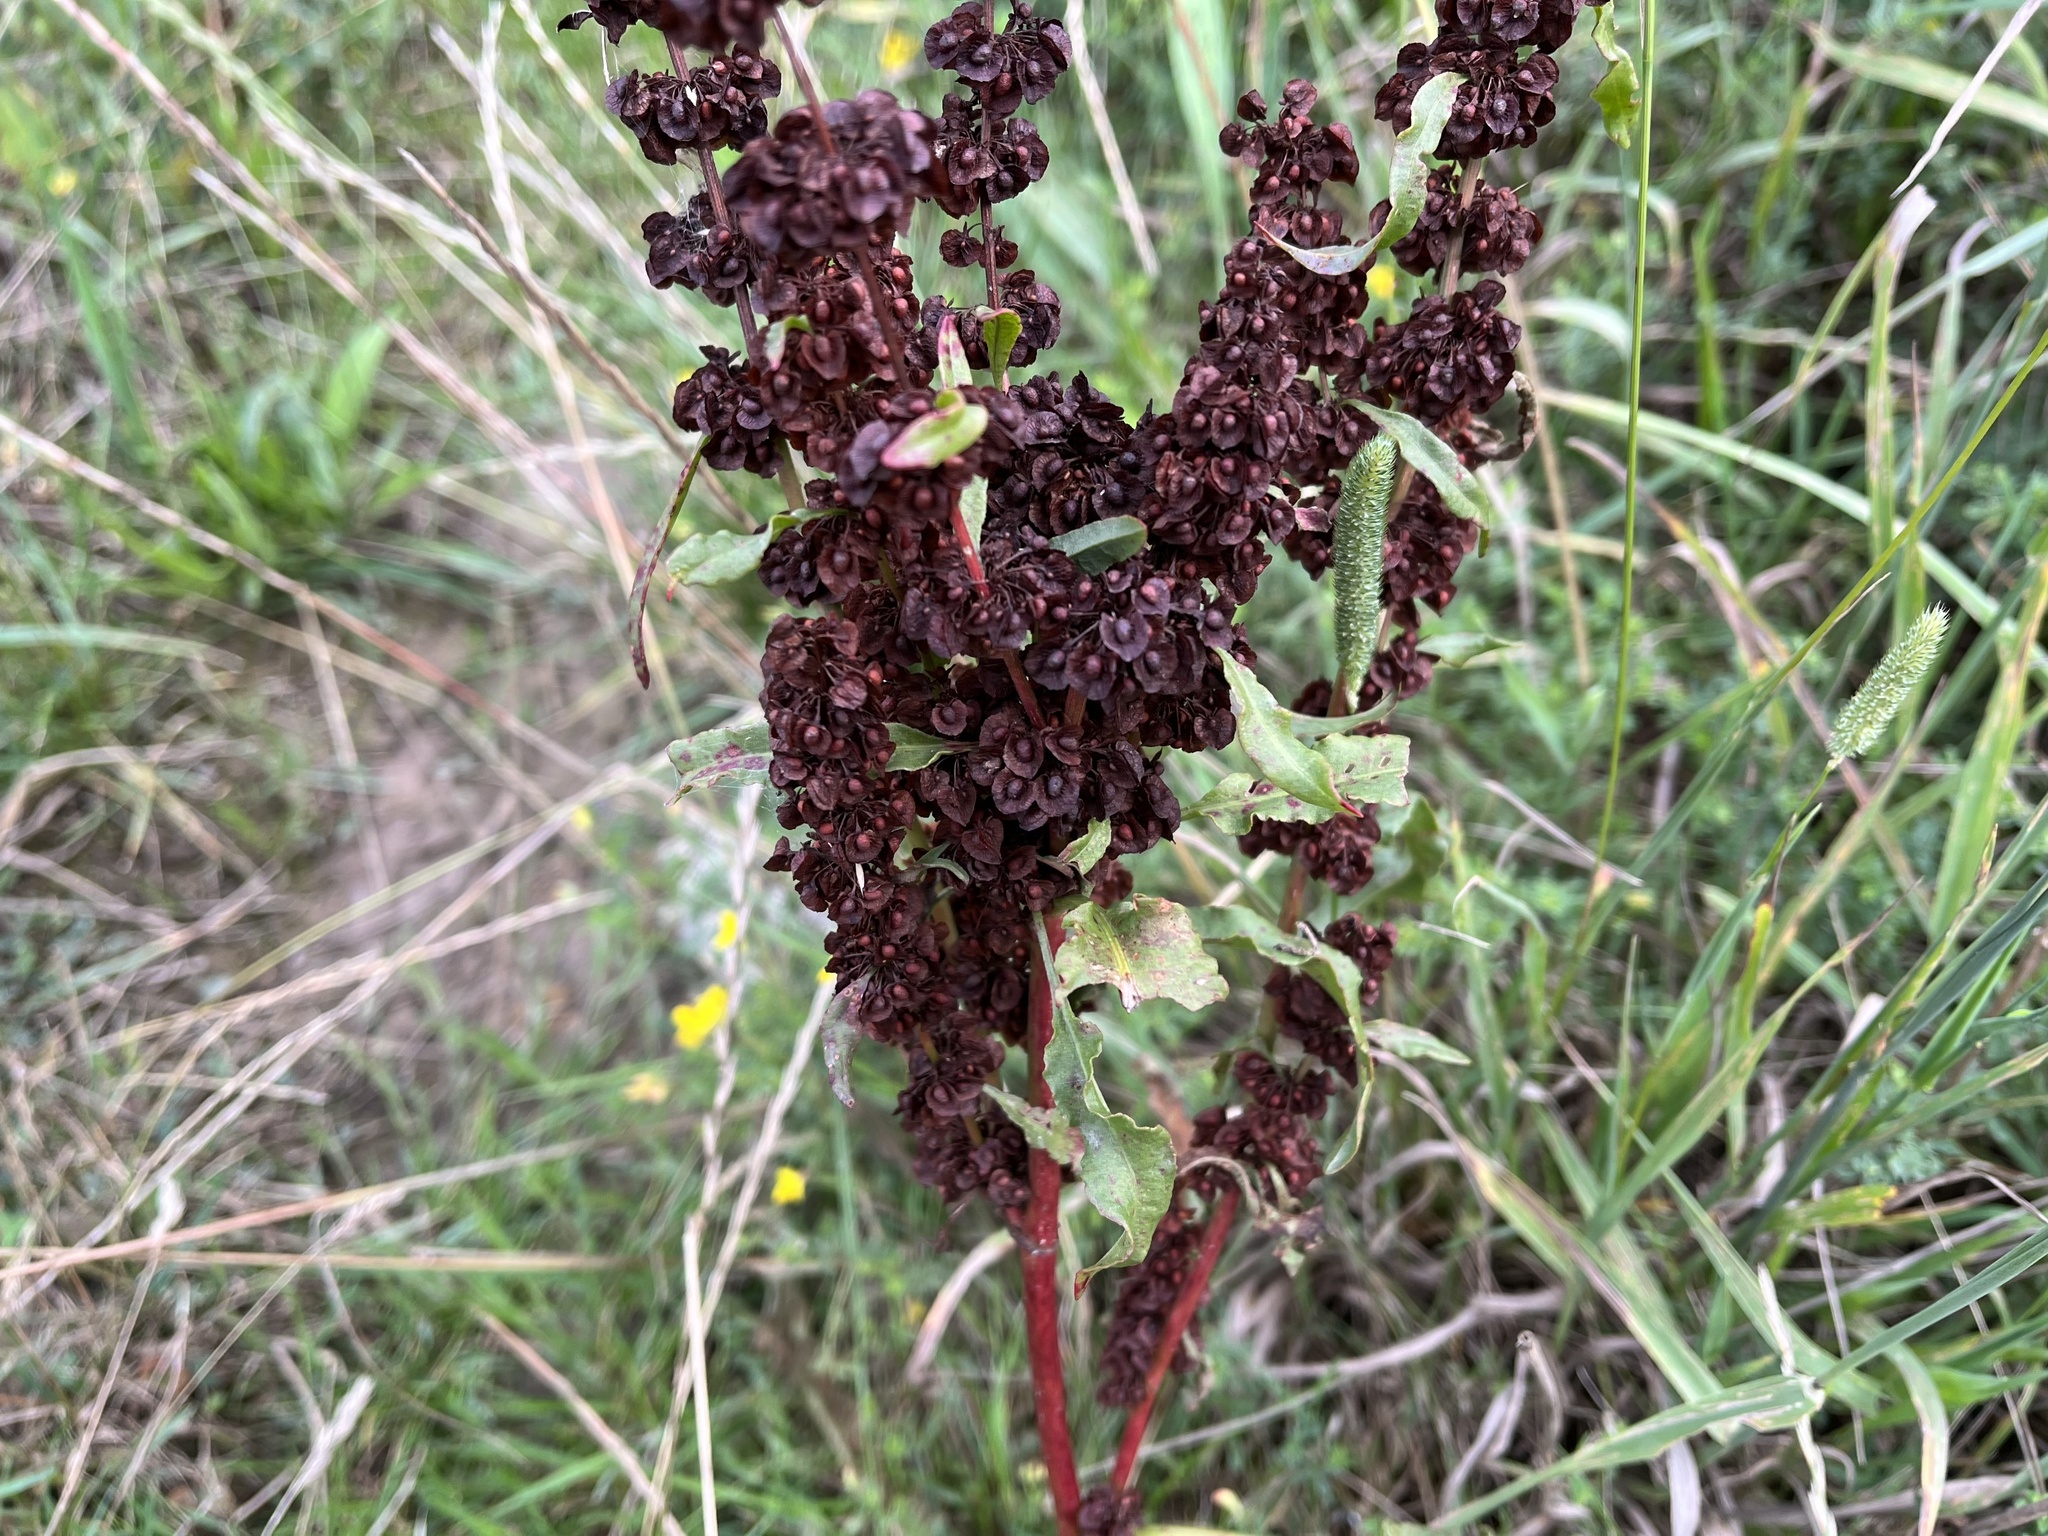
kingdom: Plantae
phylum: Tracheophyta
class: Magnoliopsida
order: Caryophyllales
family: Polygonaceae
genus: Rumex
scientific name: Rumex crispus
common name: Curled dock
